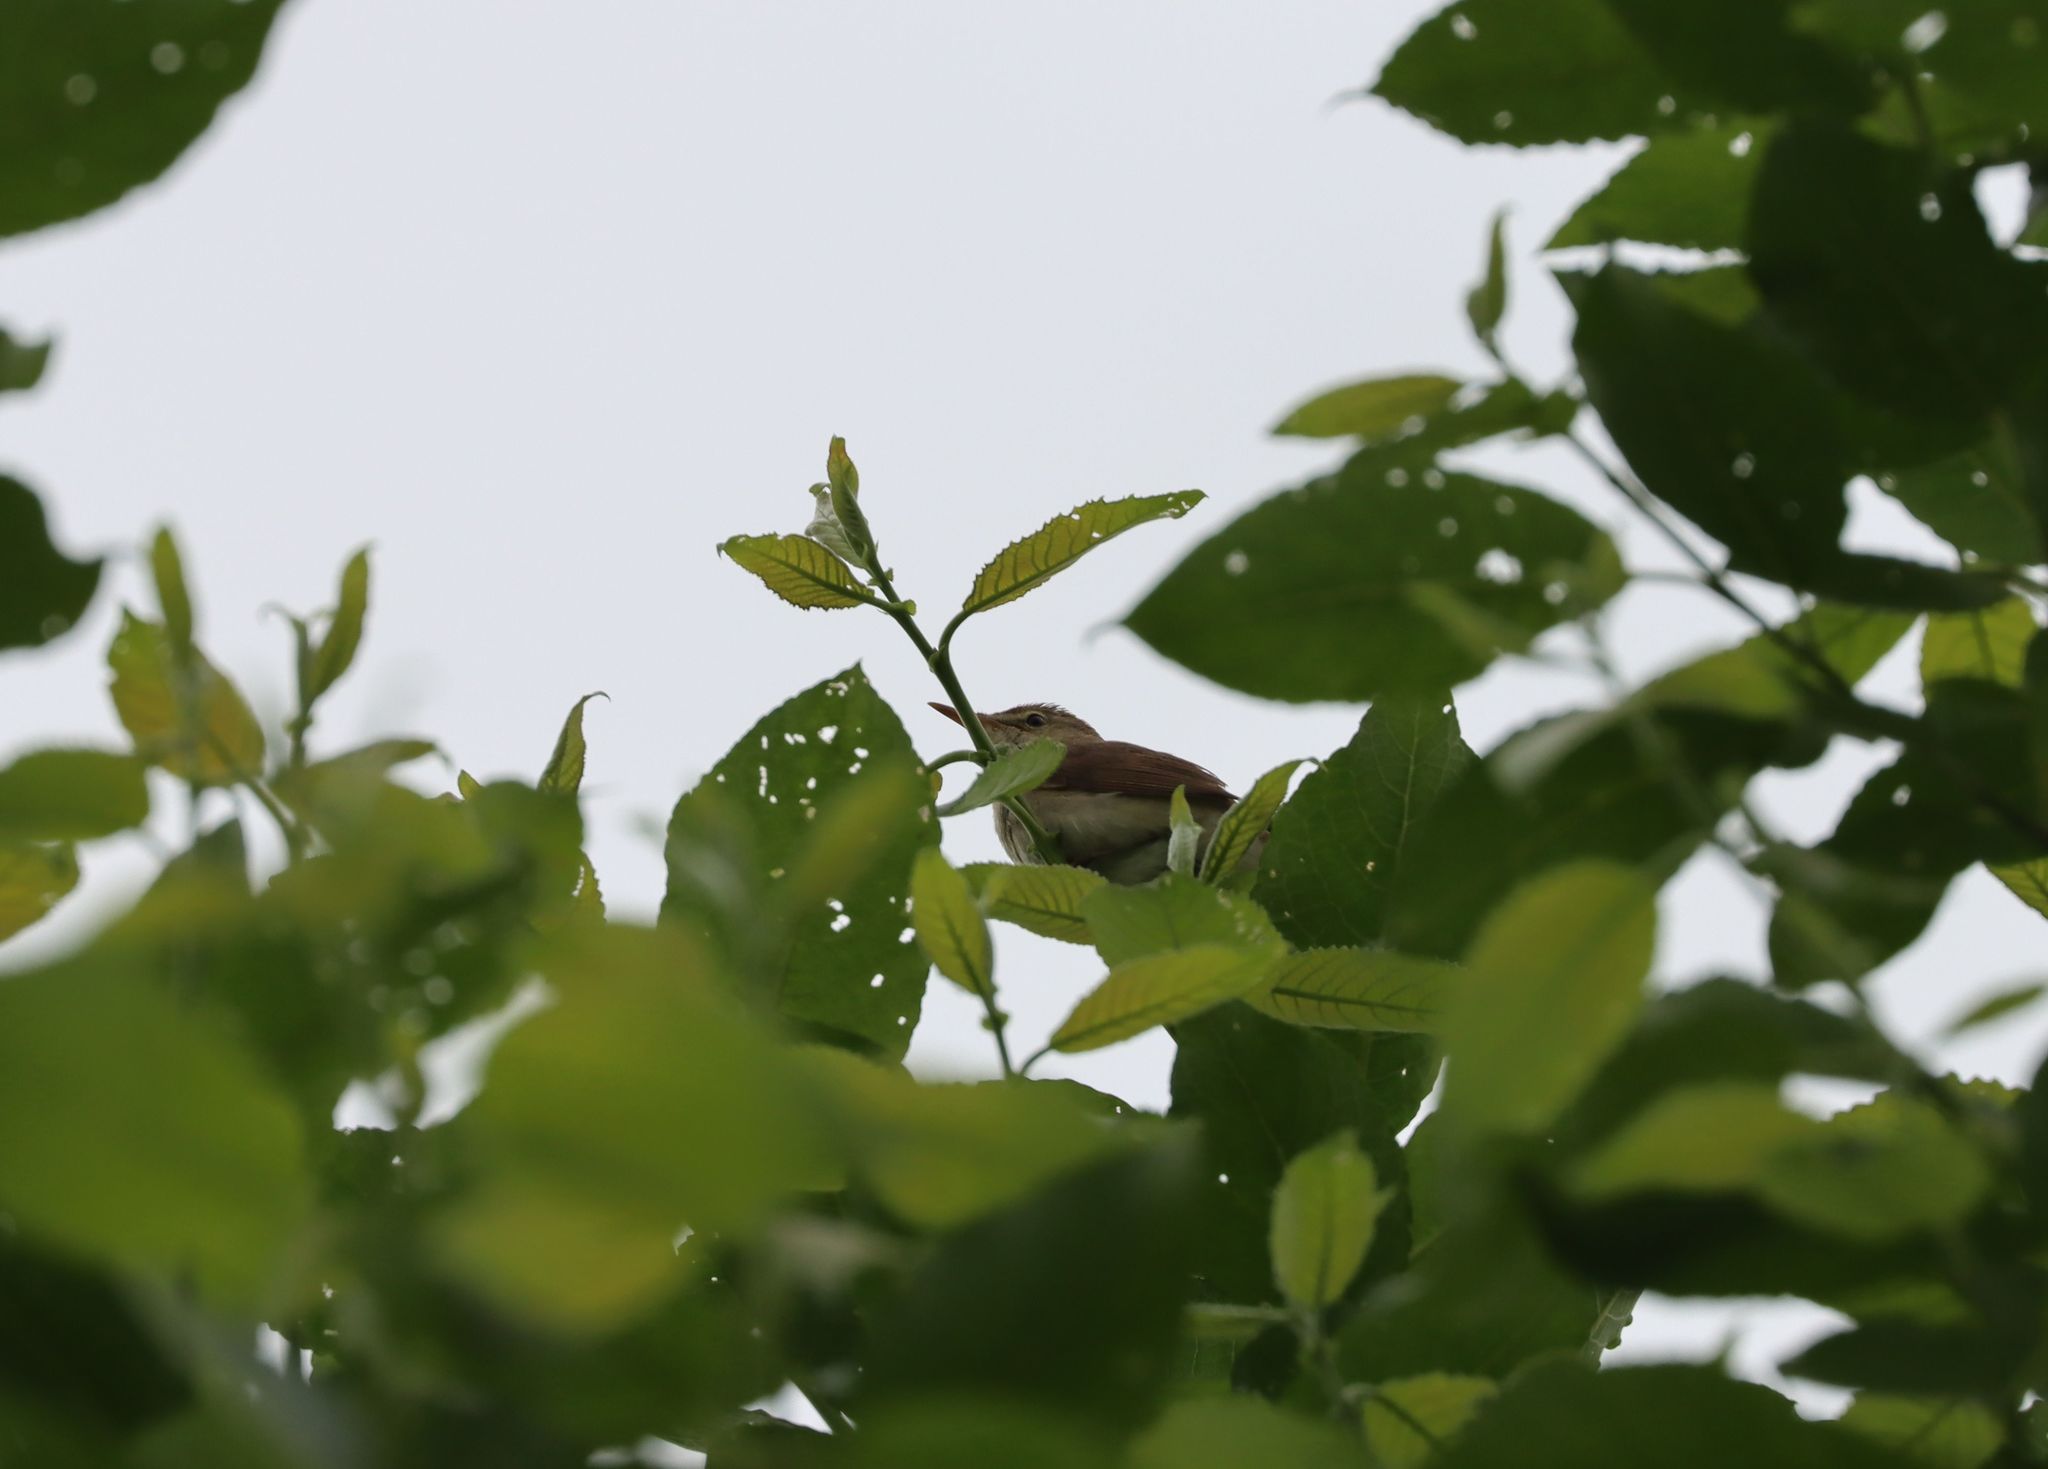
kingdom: Animalia
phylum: Chordata
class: Aves
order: Passeriformes
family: Acrocephalidae
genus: Acrocephalus
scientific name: Acrocephalus dumetorum
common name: Blyth's reed warbler
